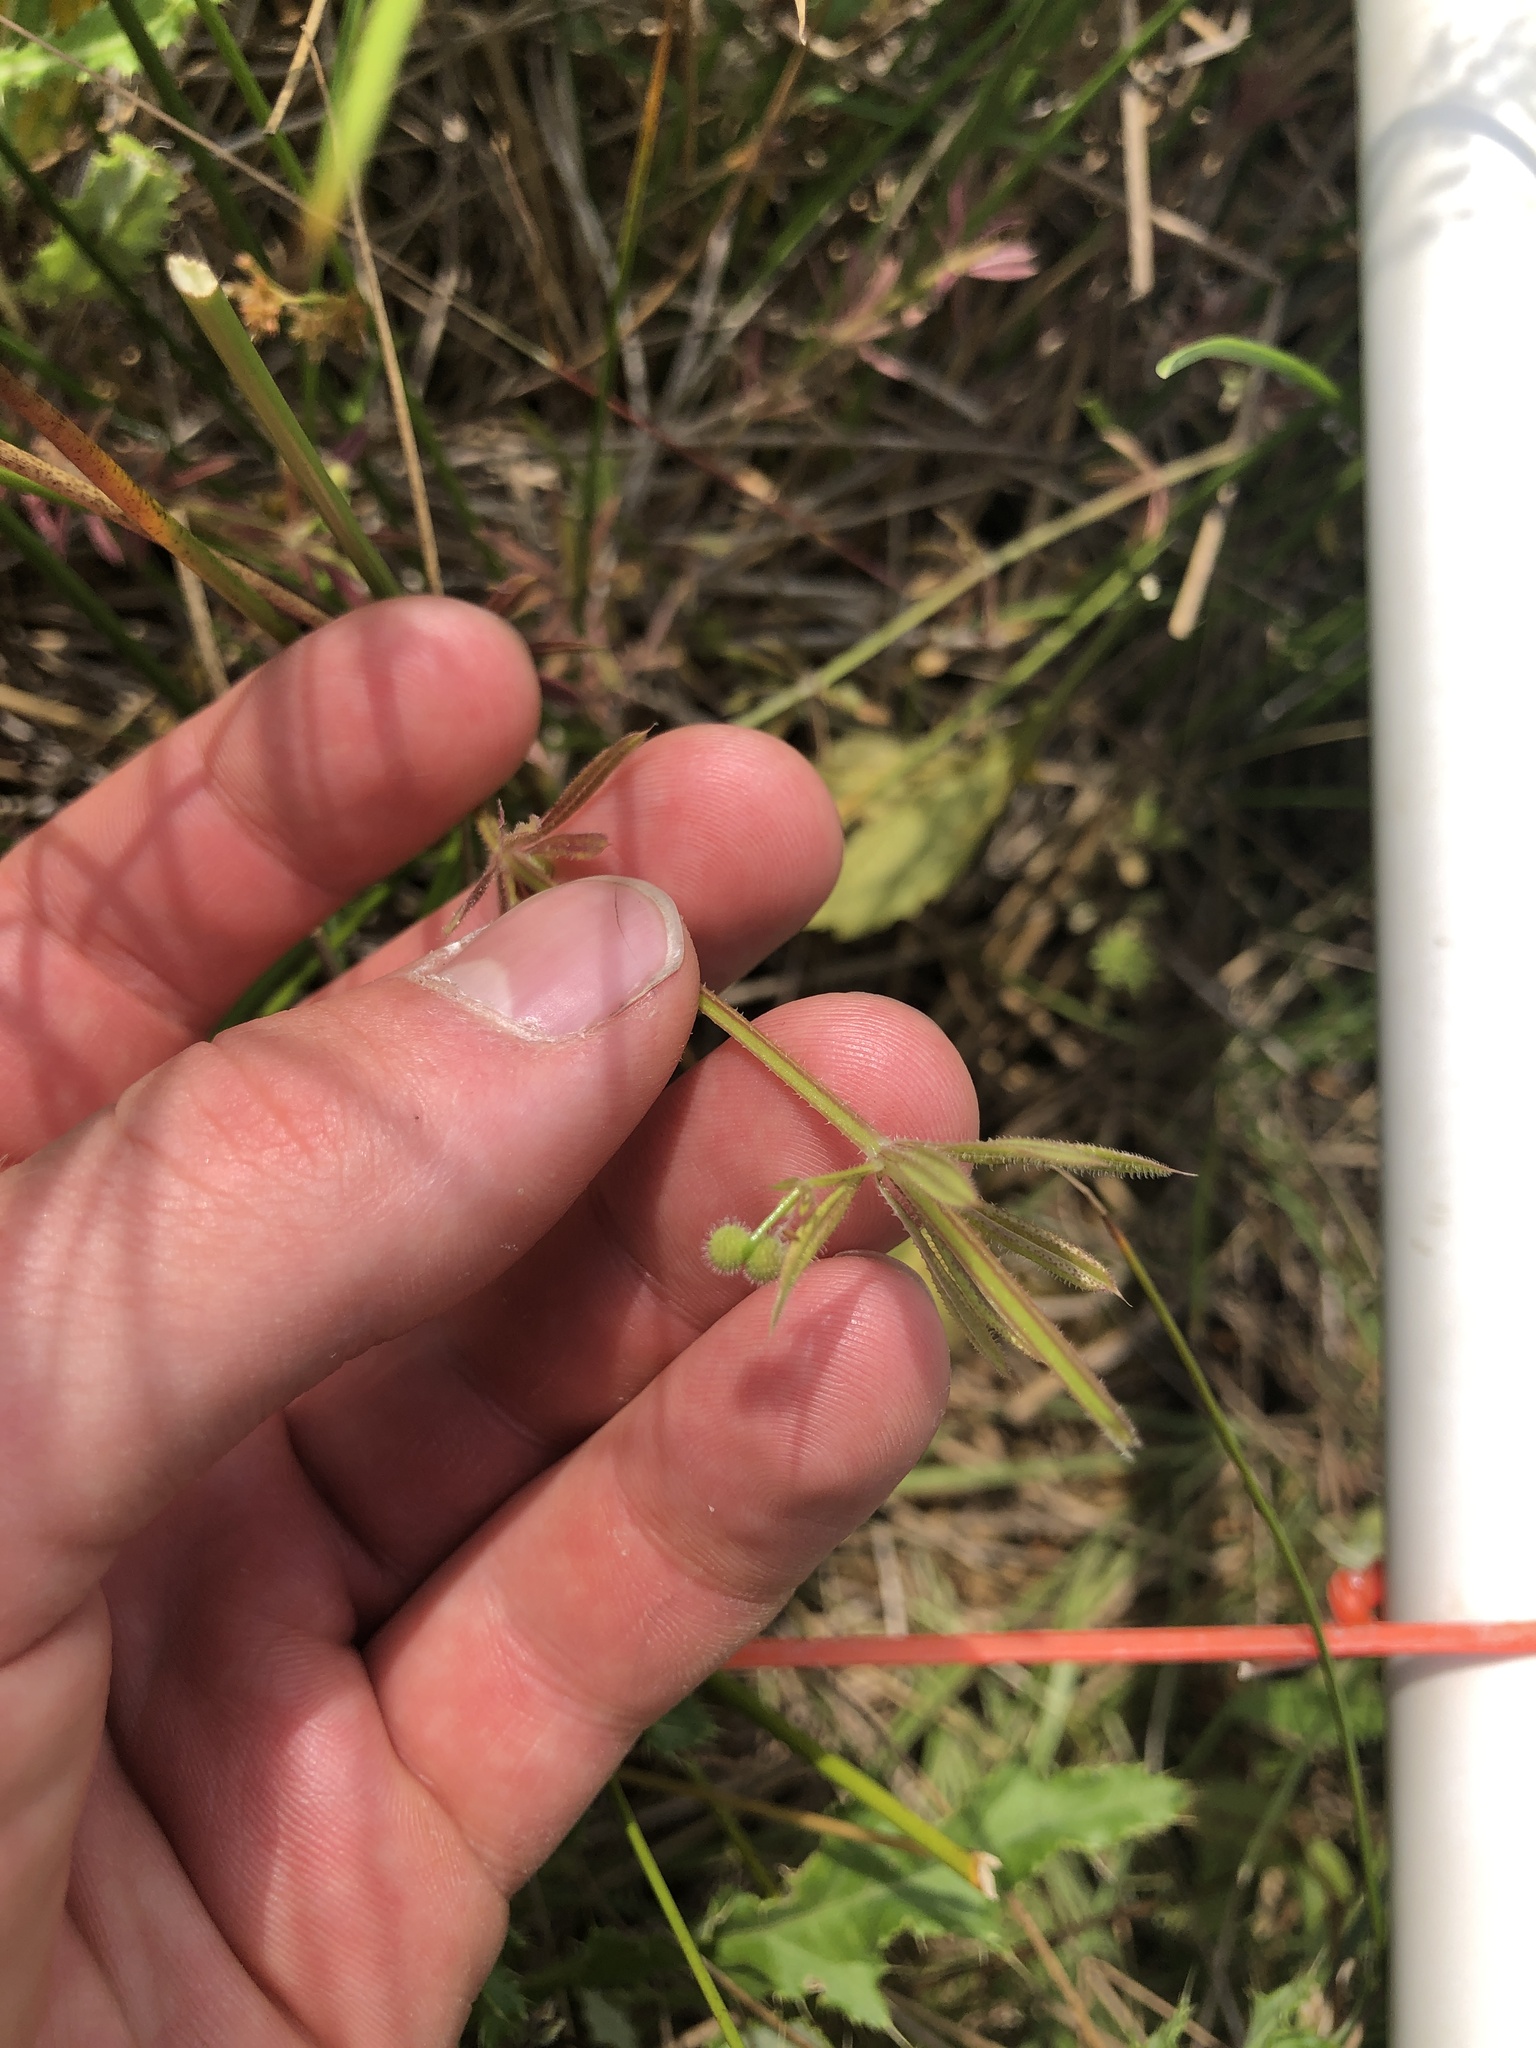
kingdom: Plantae
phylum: Tracheophyta
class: Magnoliopsida
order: Gentianales
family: Rubiaceae
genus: Galium
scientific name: Galium aparine
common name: Cleavers
